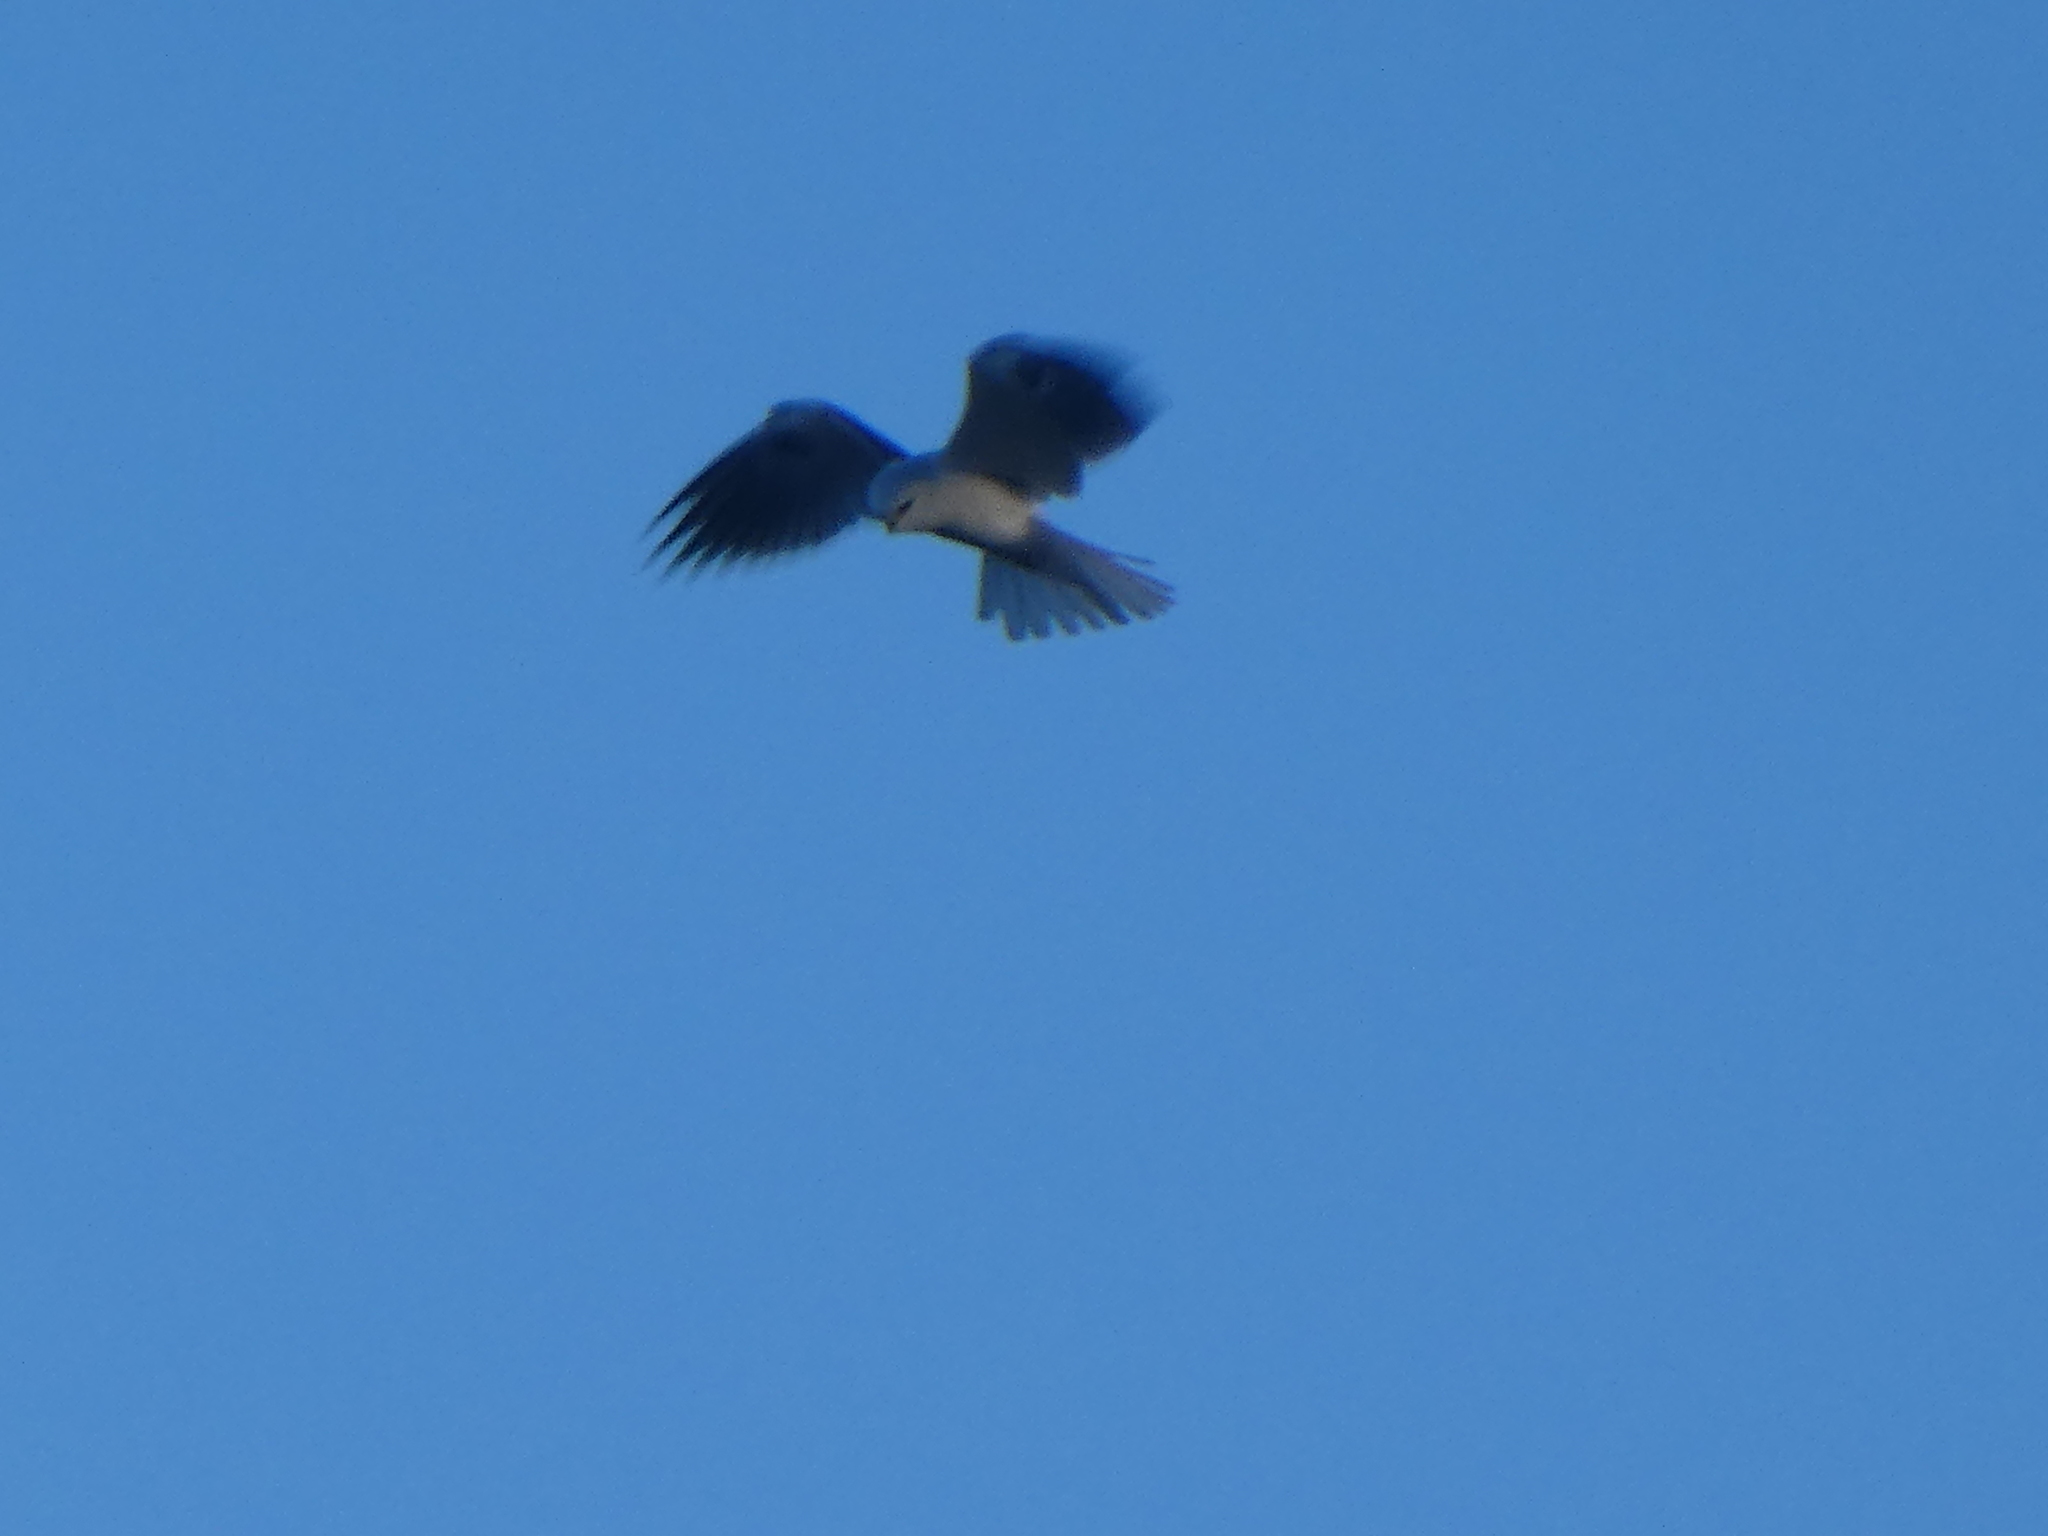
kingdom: Animalia
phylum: Chordata
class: Aves
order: Accipitriformes
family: Accipitridae
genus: Elanus
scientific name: Elanus leucurus
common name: White-tailed kite
